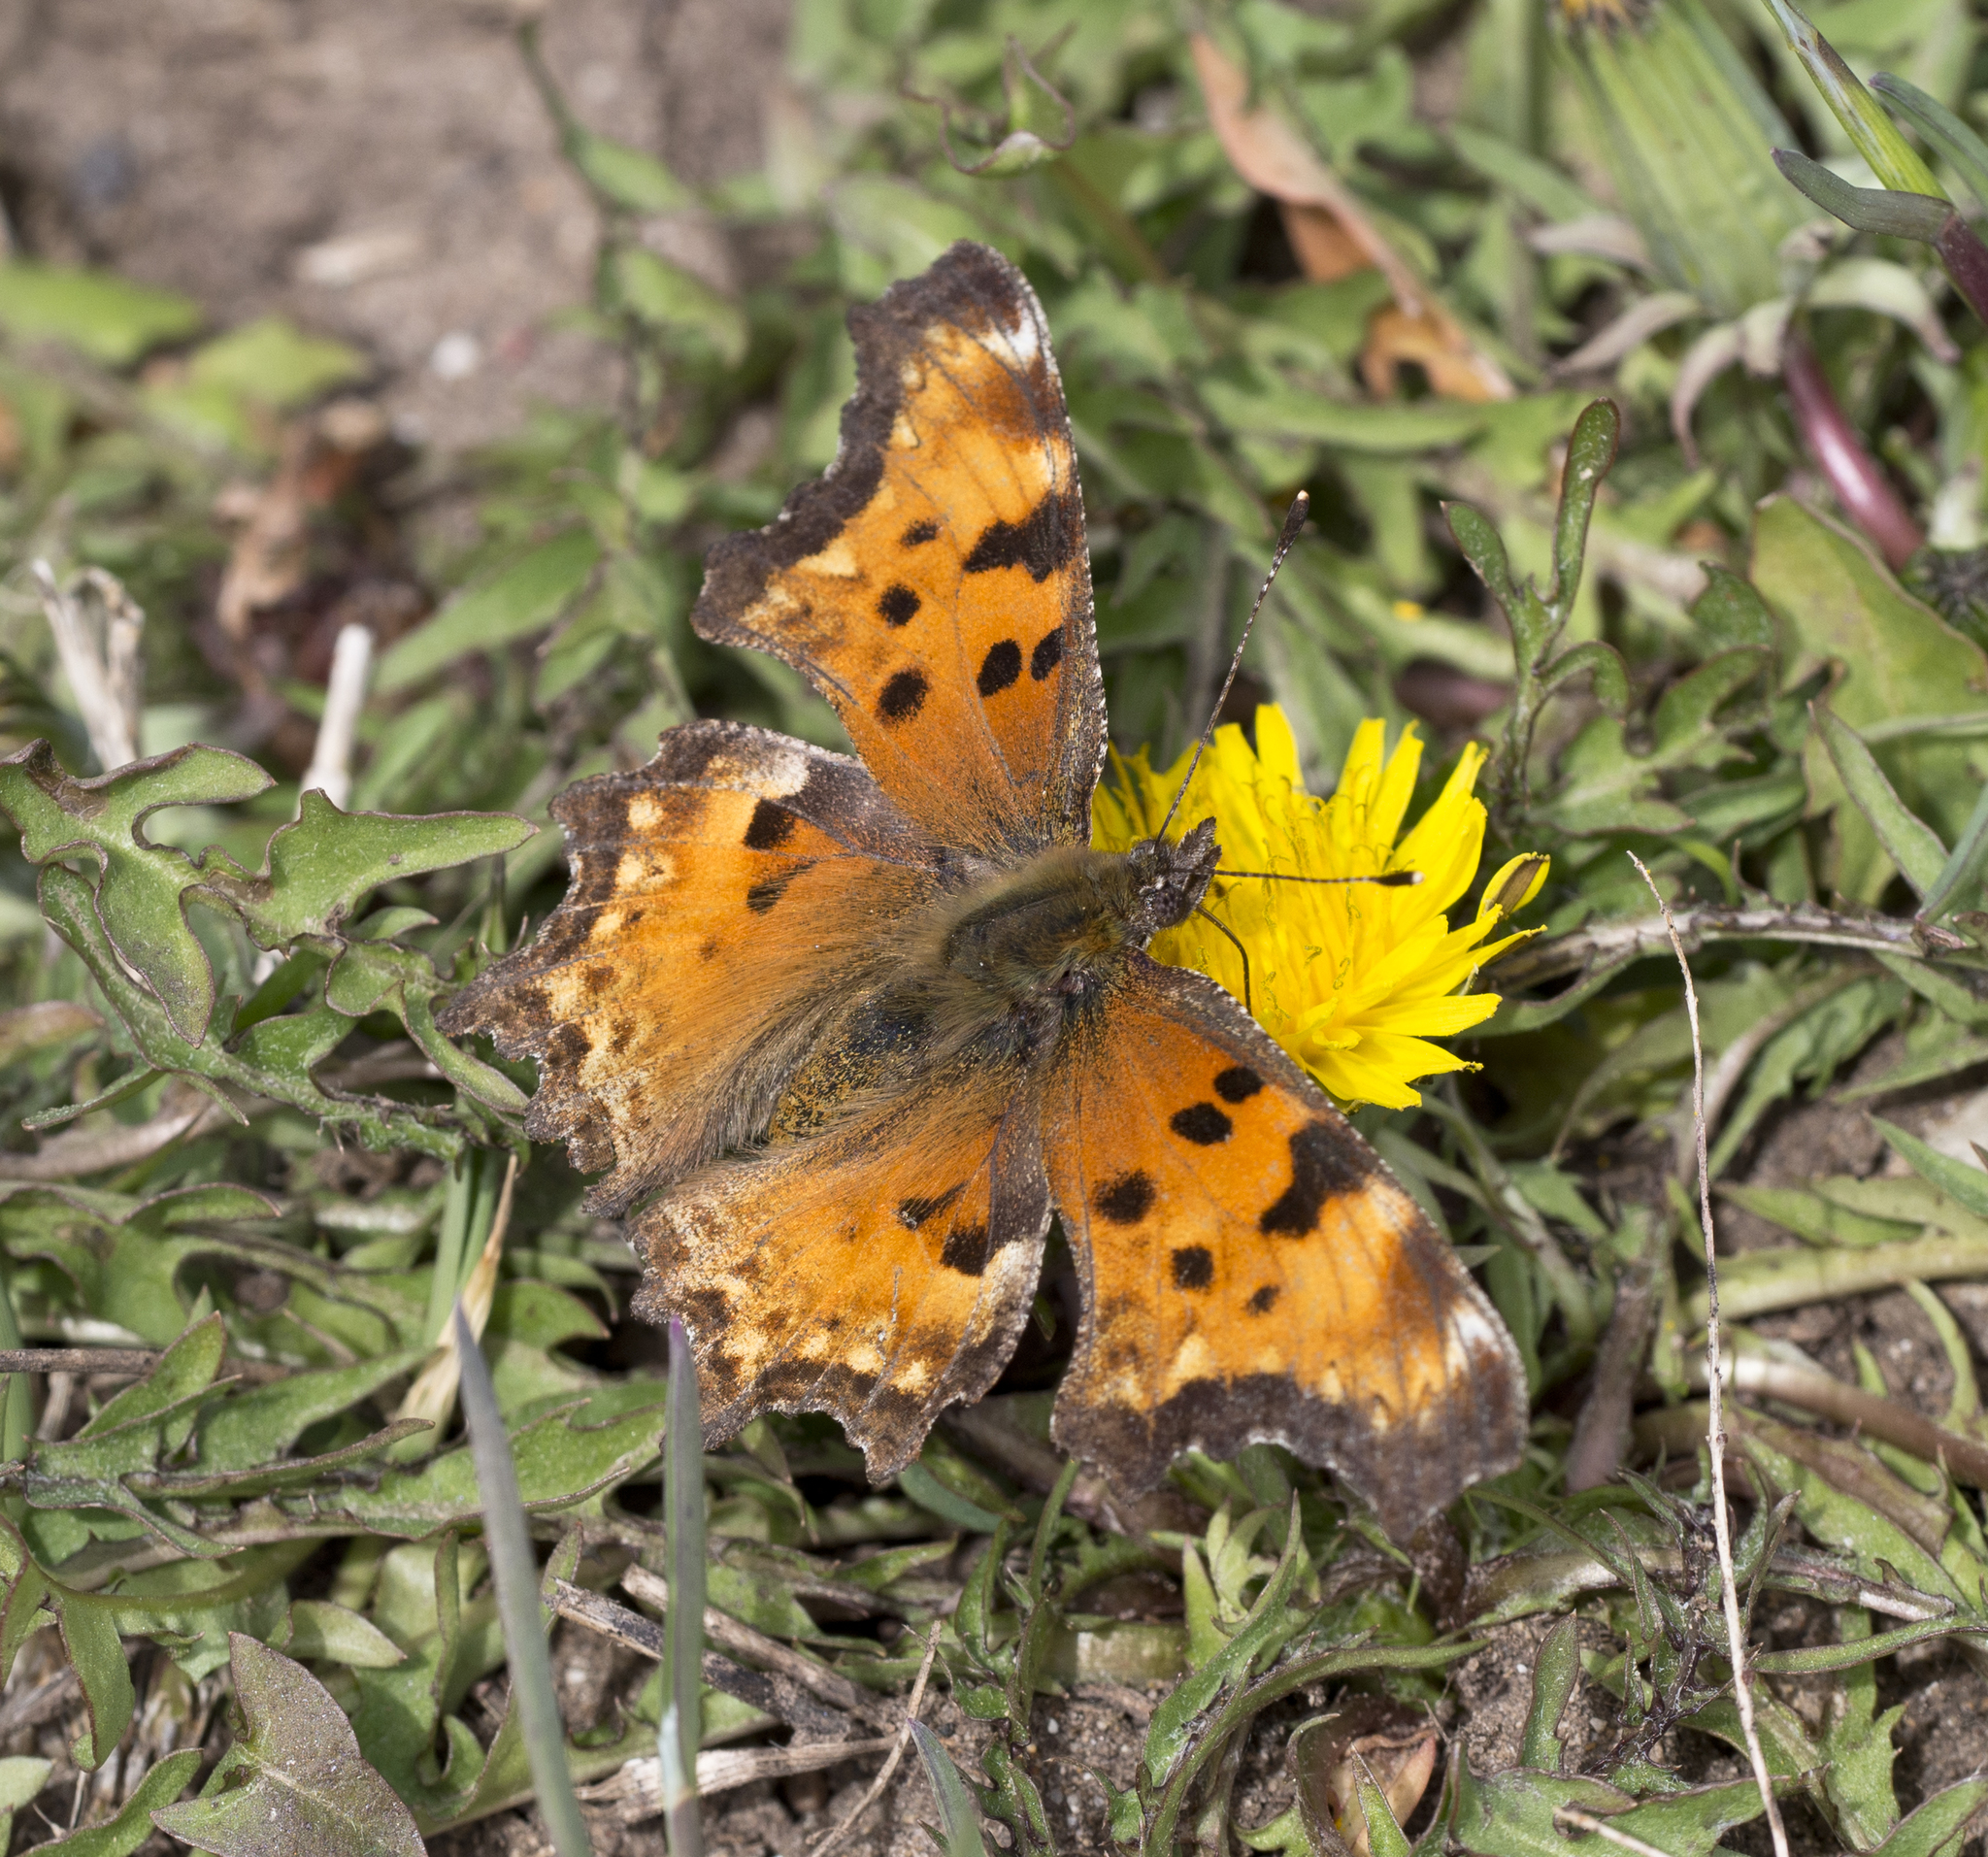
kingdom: Animalia
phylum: Arthropoda
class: Insecta
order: Lepidoptera
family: Nymphalidae
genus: Polygonia
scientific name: Polygonia gracilis
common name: Hoary comma
